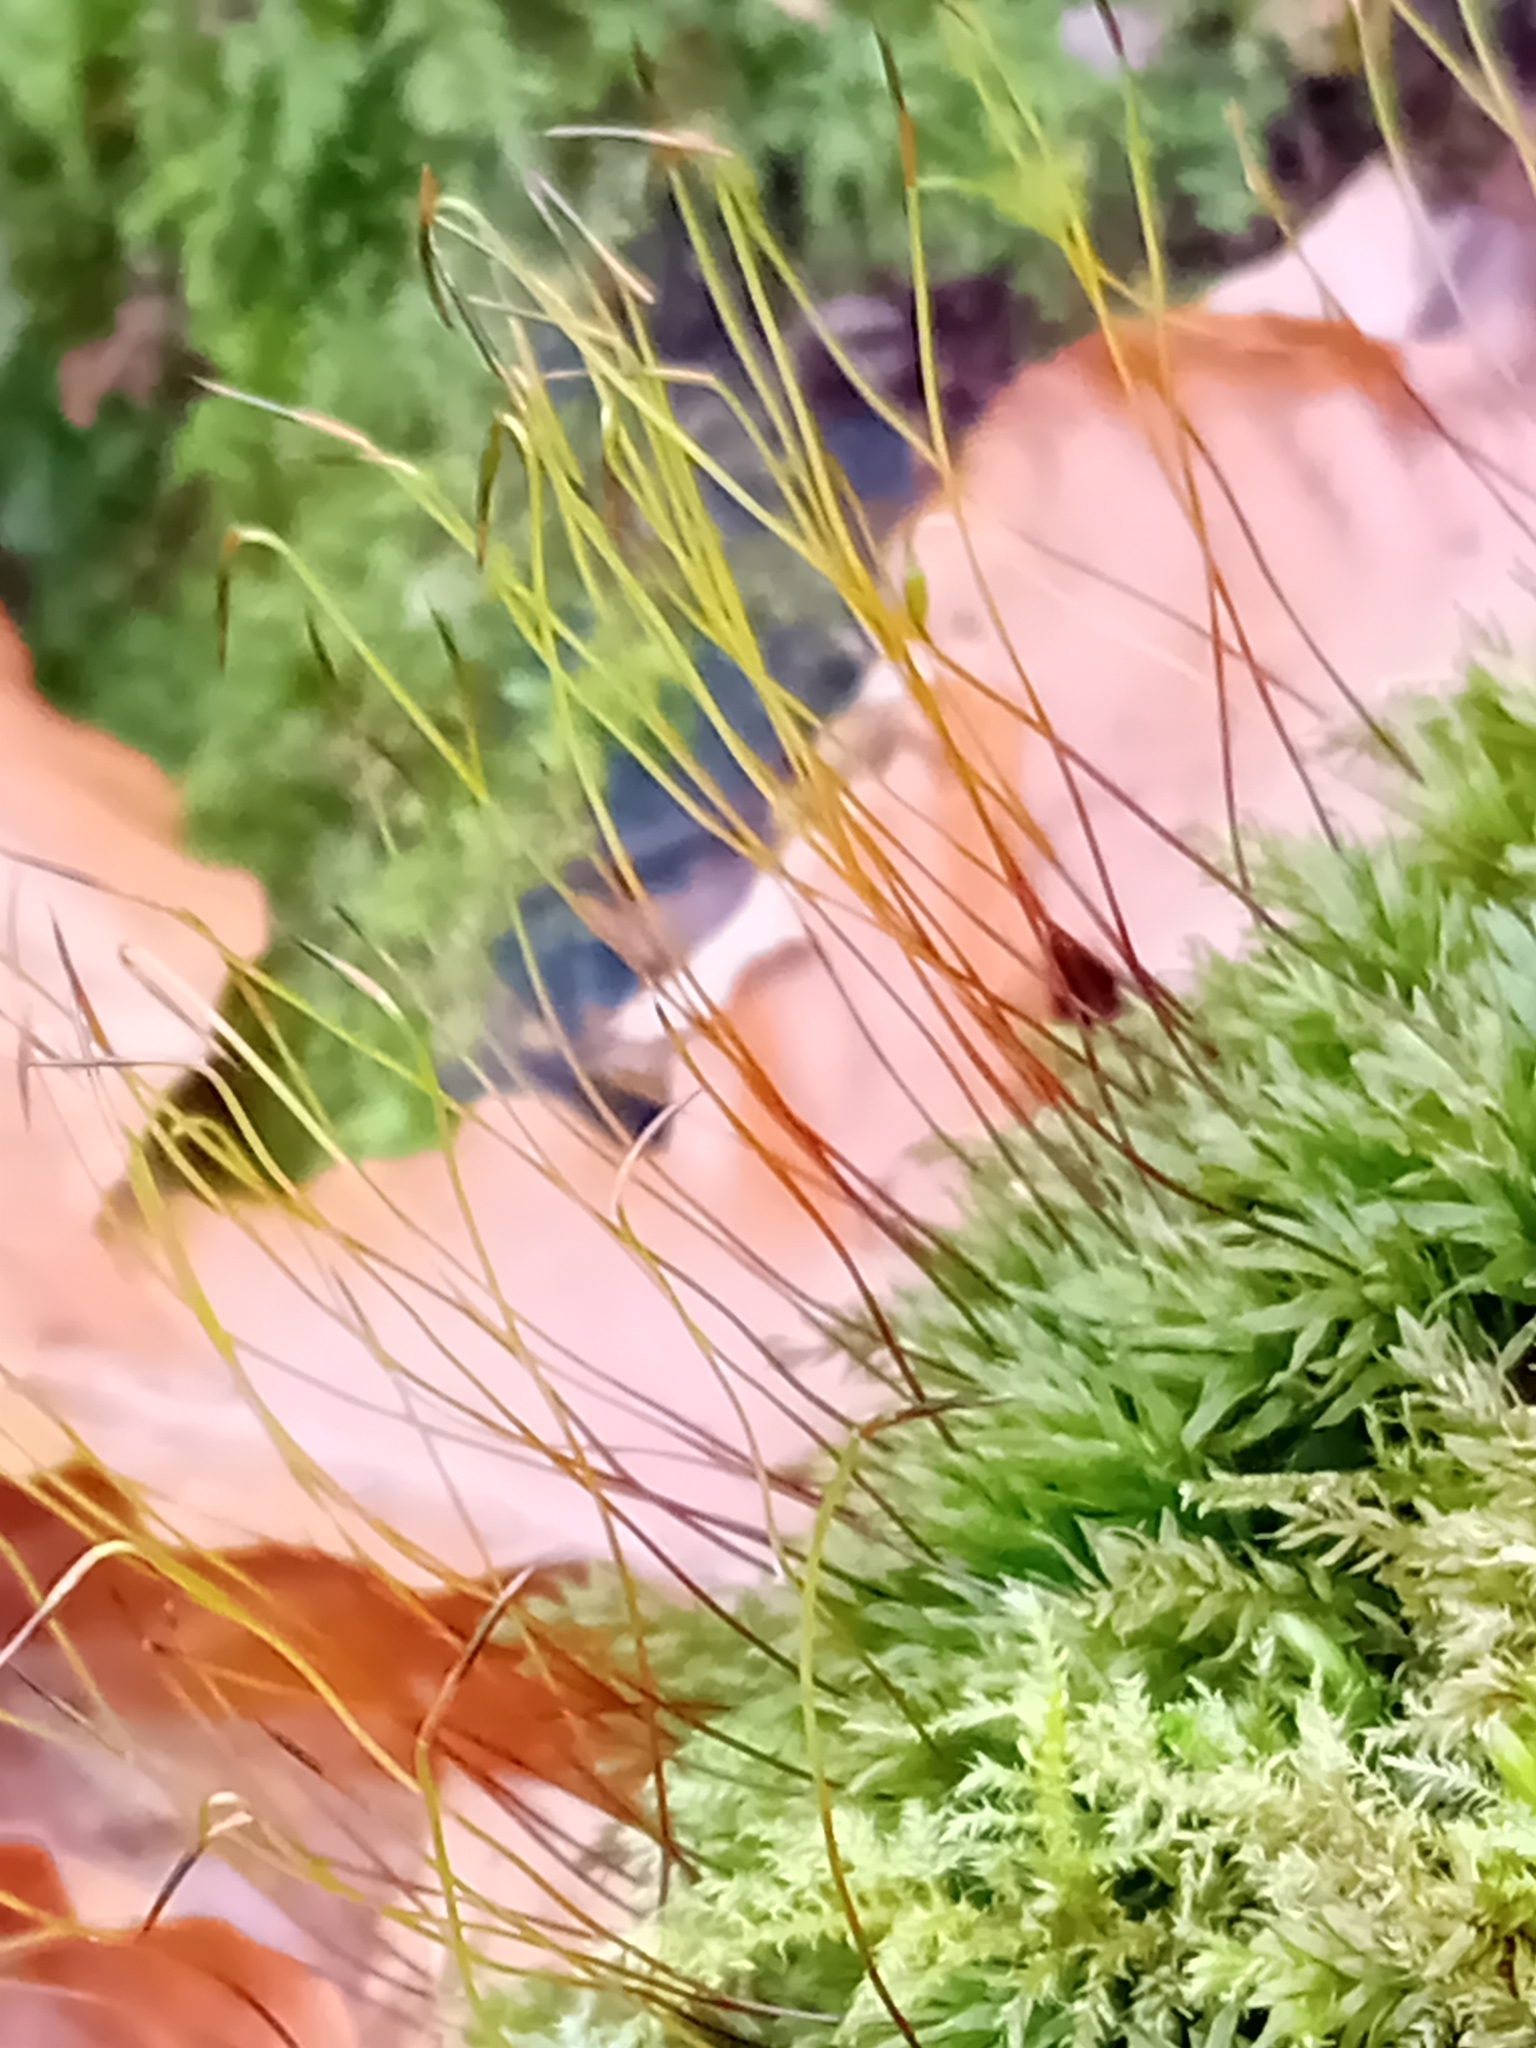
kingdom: Plantae
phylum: Bryophyta
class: Bryopsida
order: Bryales
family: Mniaceae
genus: Mnium
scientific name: Mnium hornum
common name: Swan's-neck leafy moss
